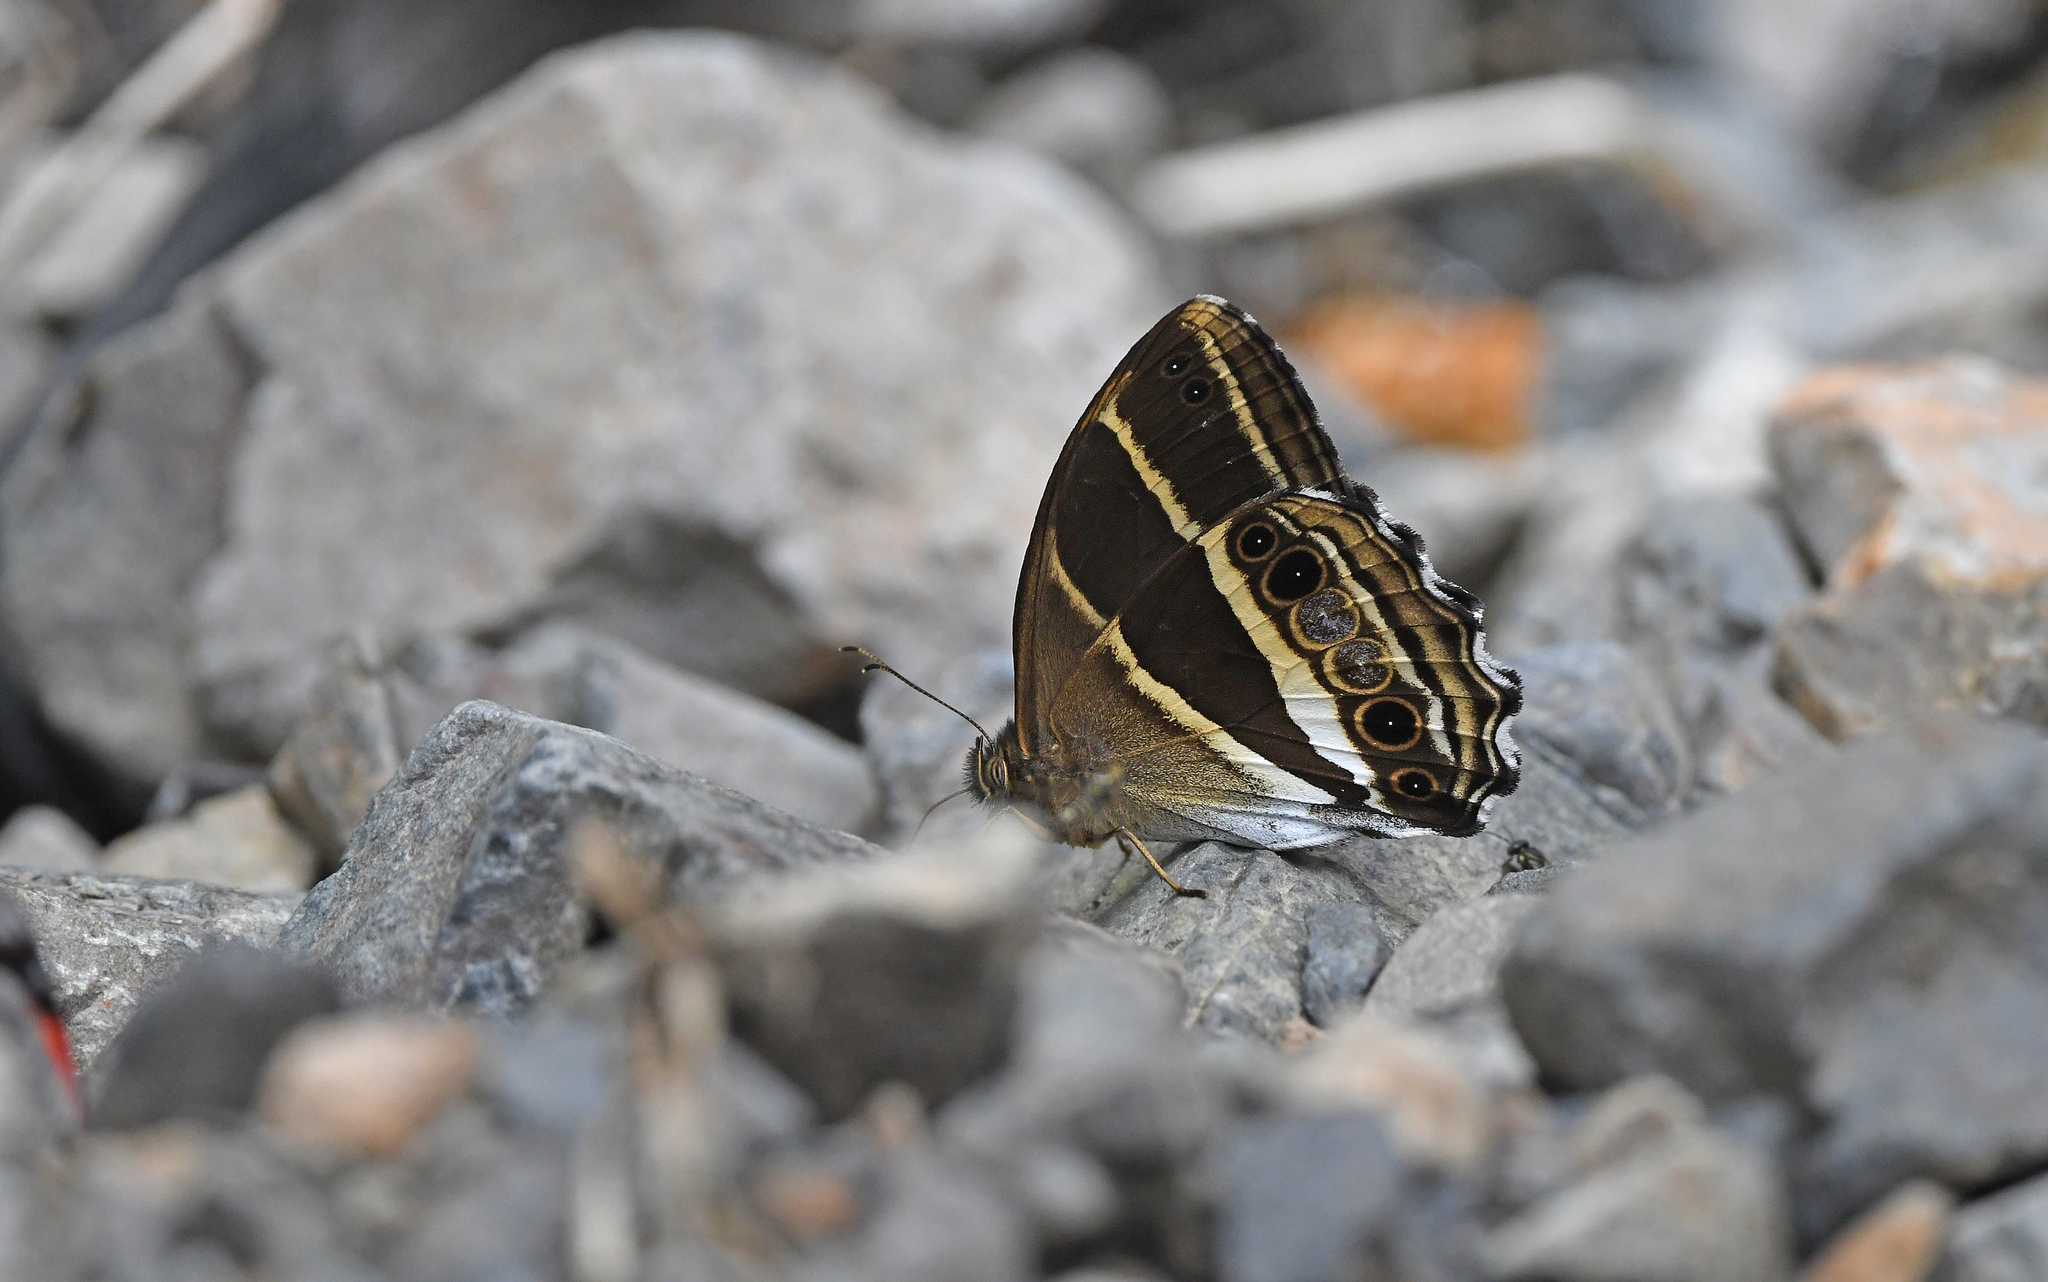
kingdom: Animalia
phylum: Arthropoda
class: Insecta
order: Lepidoptera
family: Nymphalidae
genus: Parataygetis
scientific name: Parataygetis albinotata
